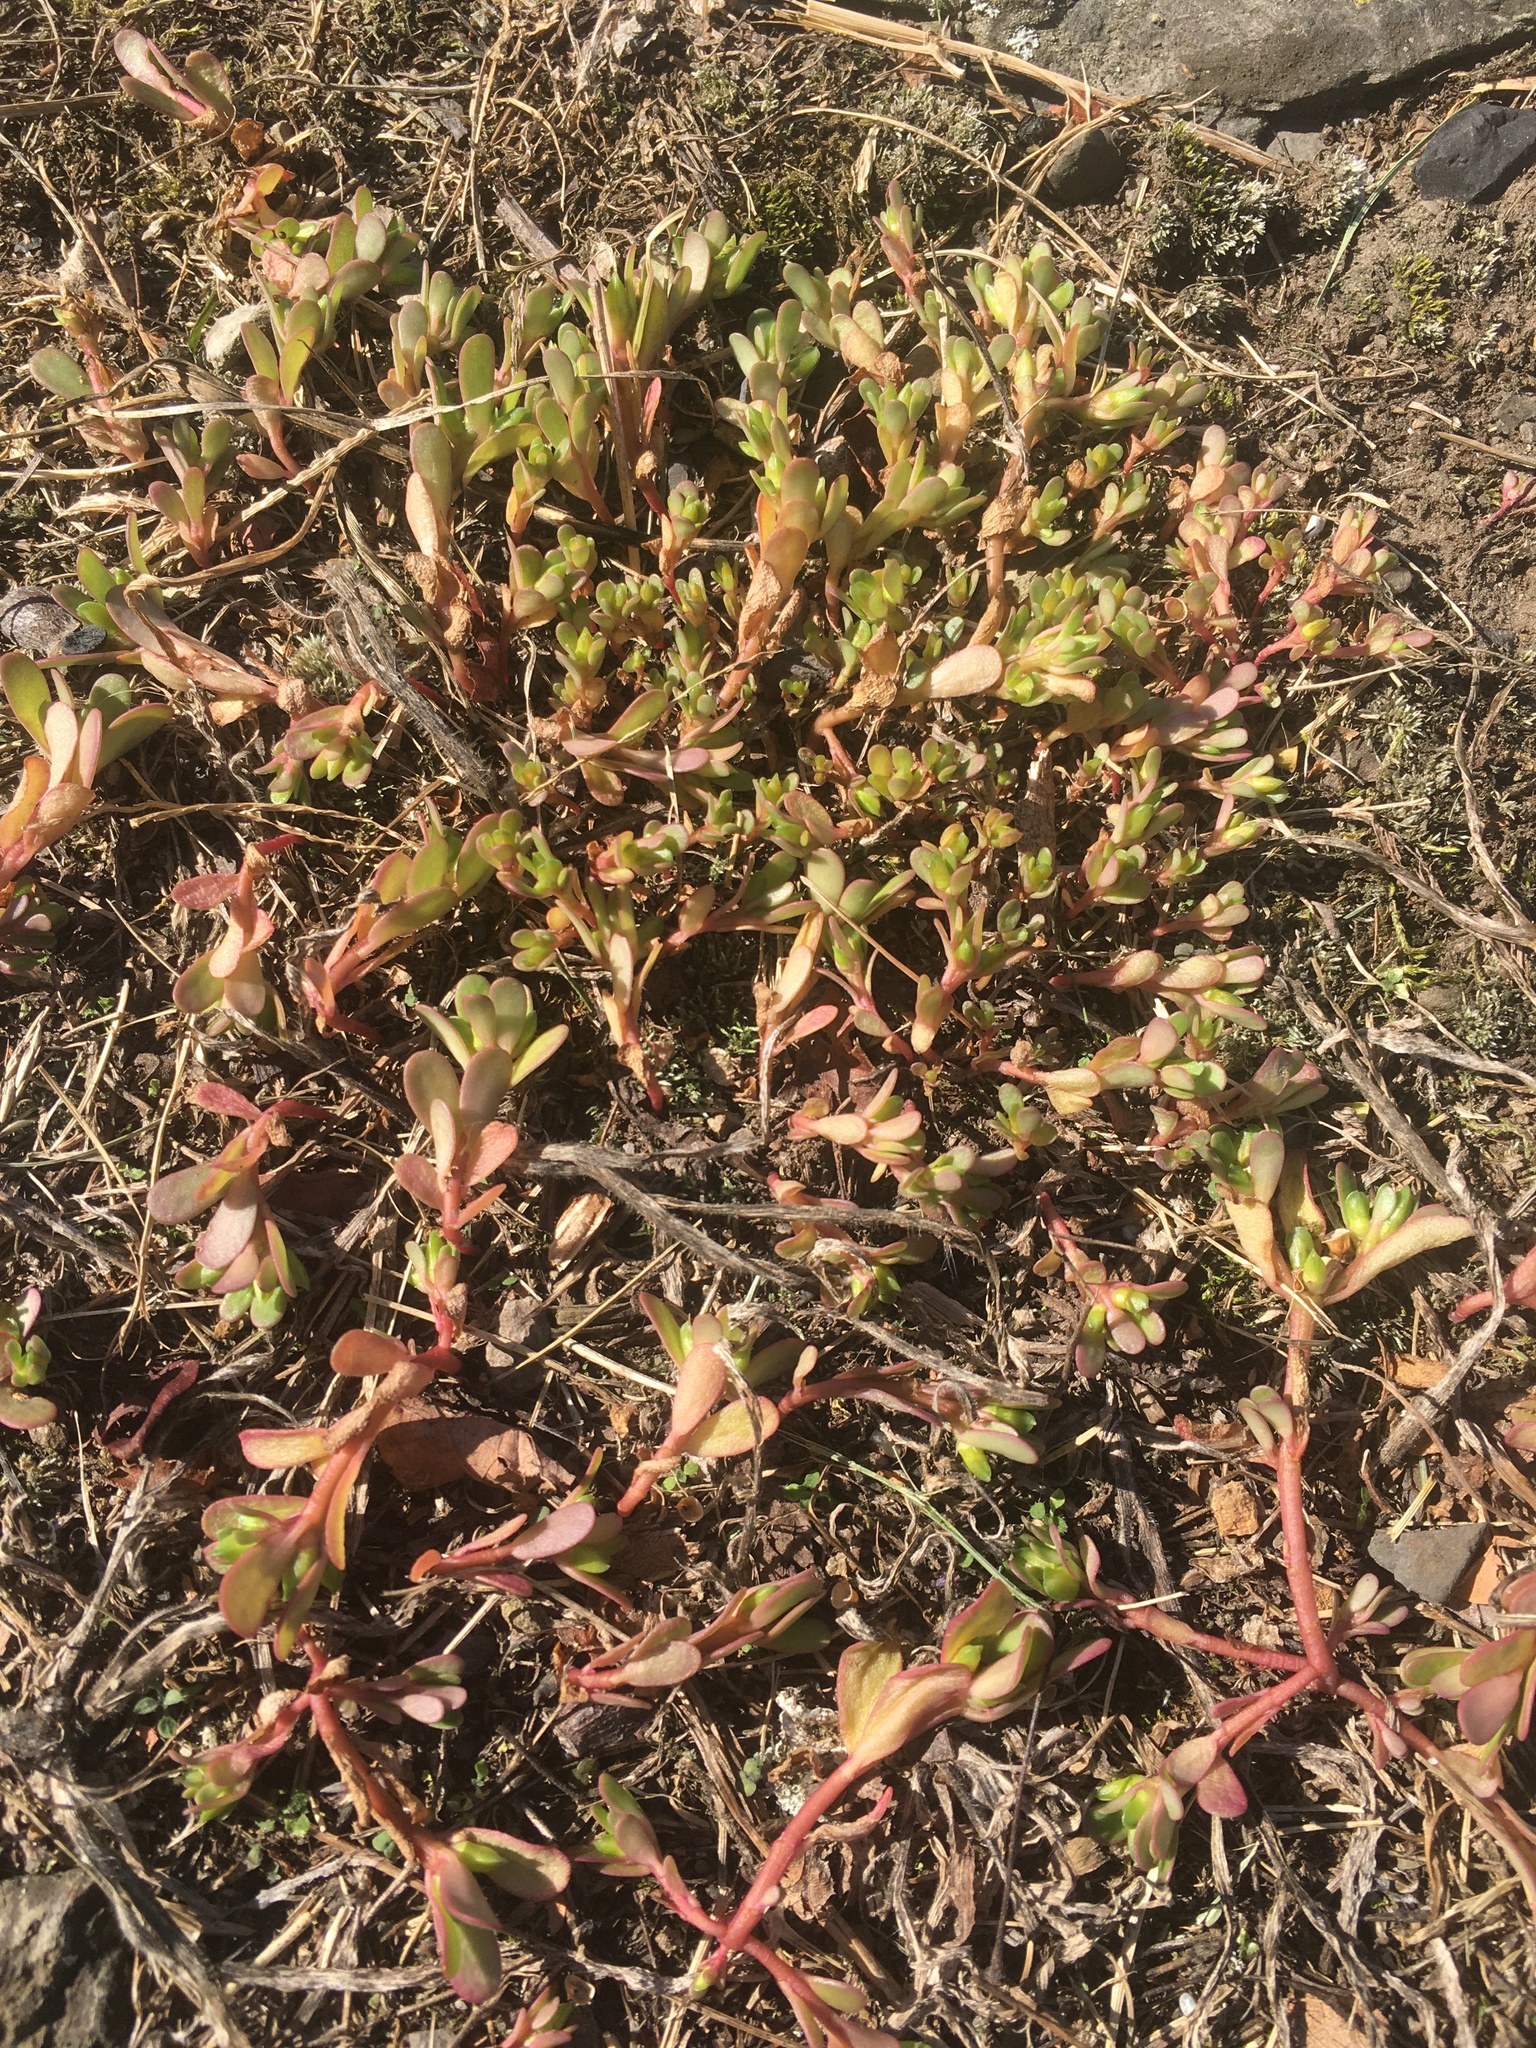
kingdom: Plantae
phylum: Tracheophyta
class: Magnoliopsida
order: Caryophyllales
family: Portulacaceae
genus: Portulaca
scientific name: Portulaca oleracea
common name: Common purslane
